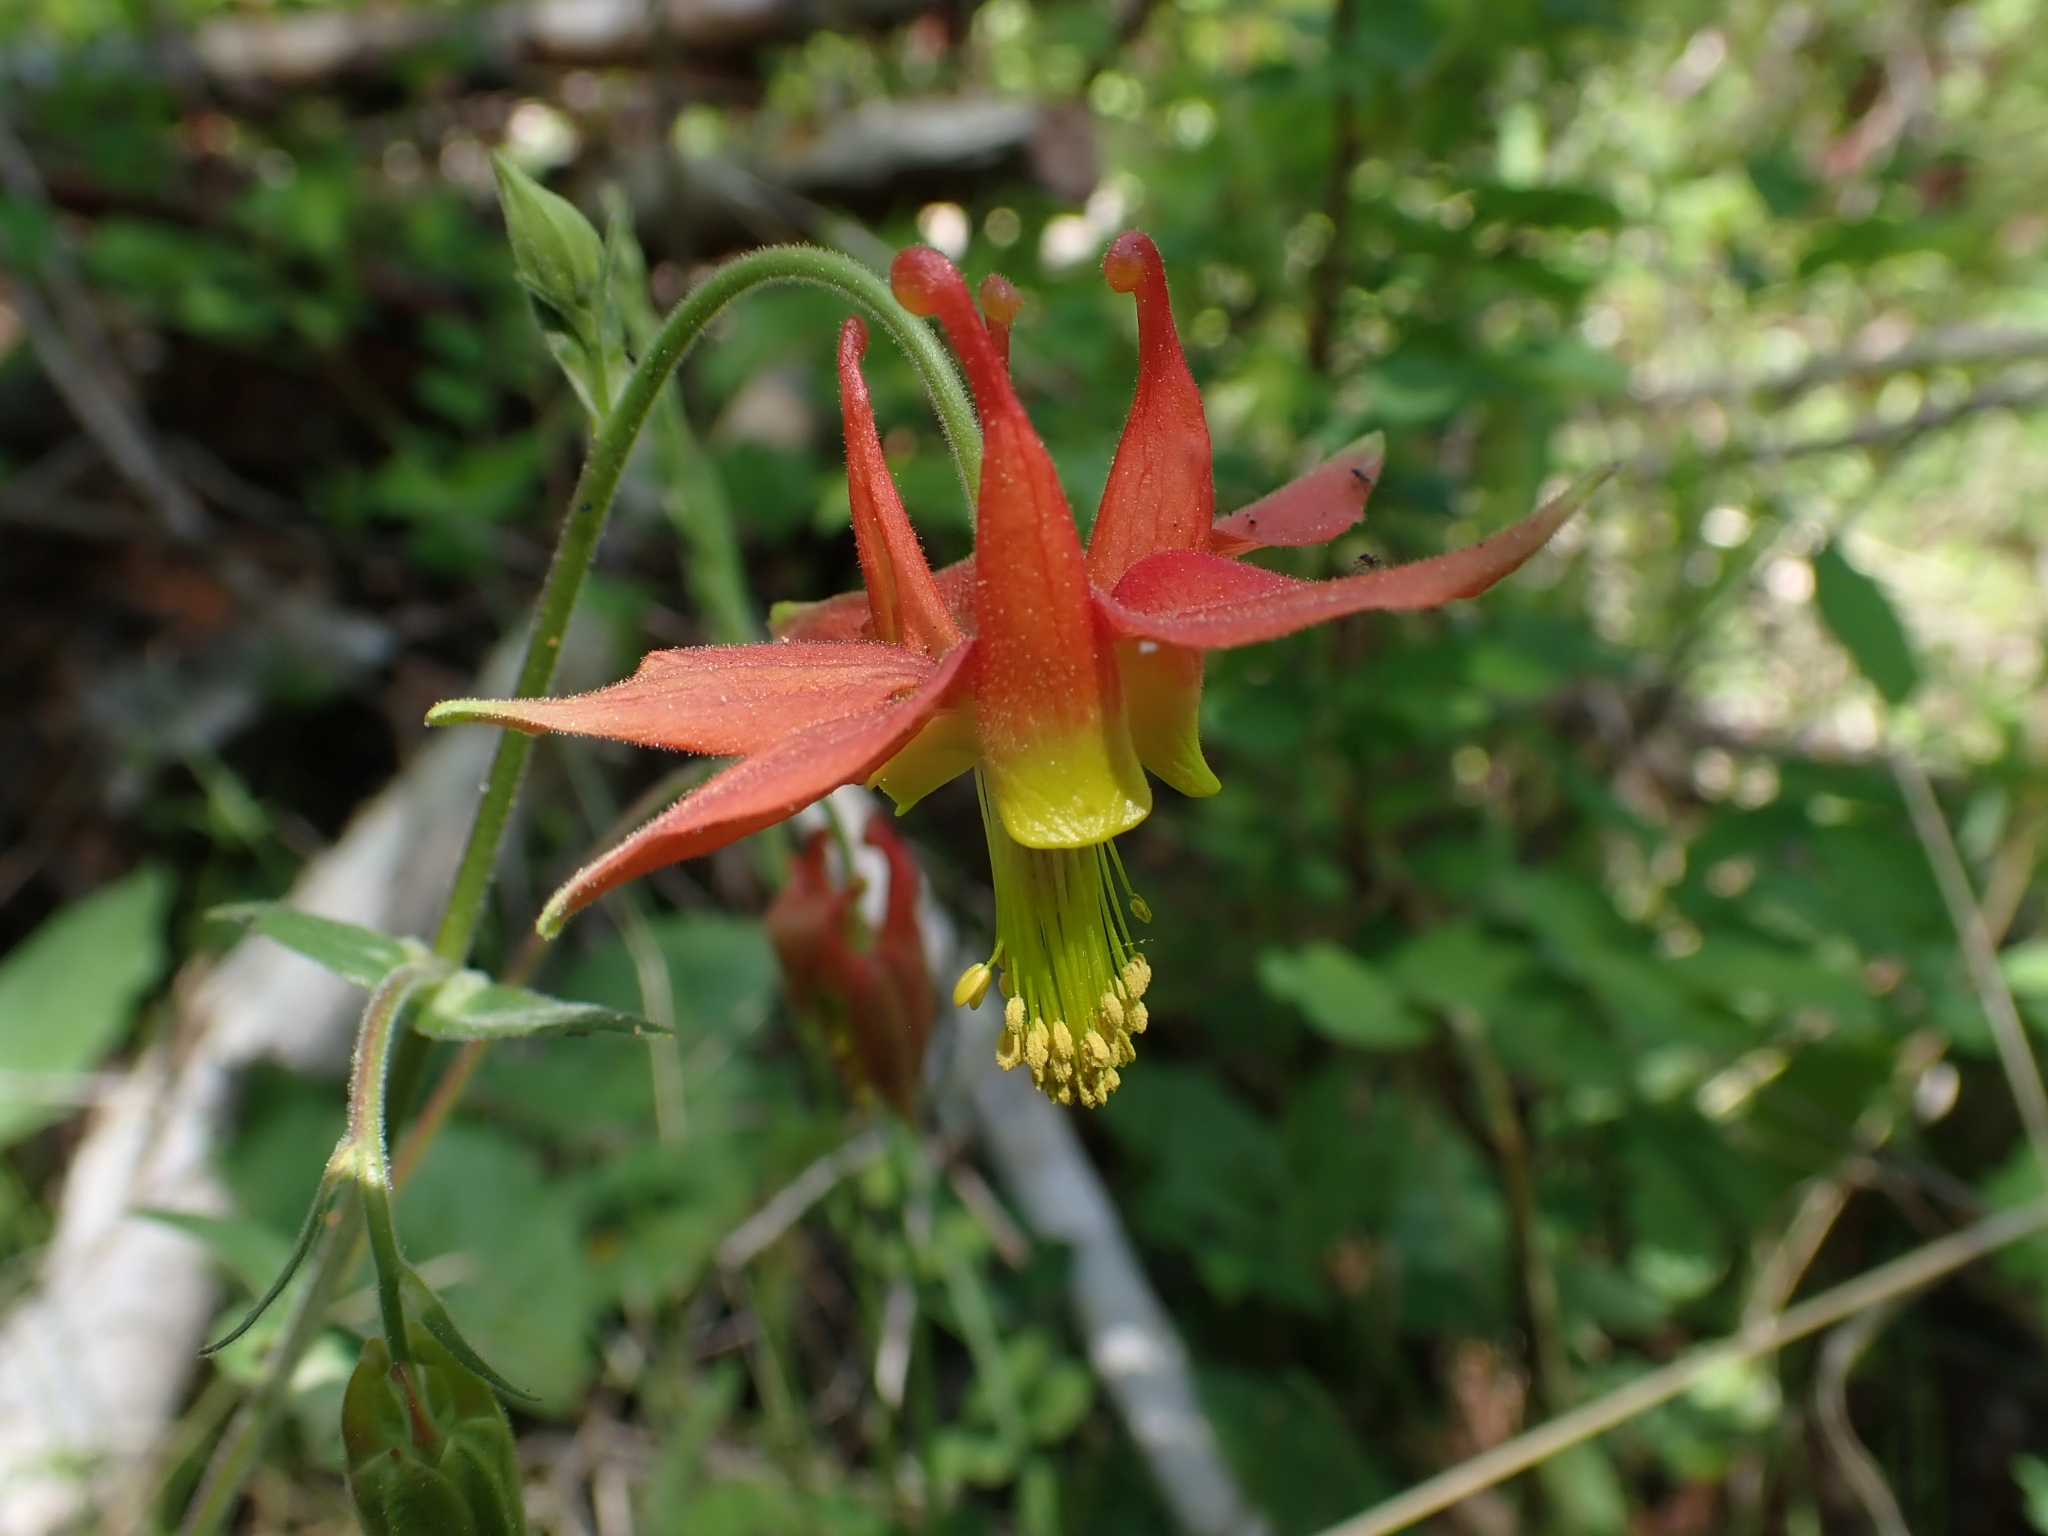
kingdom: Plantae
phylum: Tracheophyta
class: Magnoliopsida
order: Ranunculales
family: Ranunculaceae
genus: Aquilegia
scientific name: Aquilegia formosa
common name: Sitka columbine
